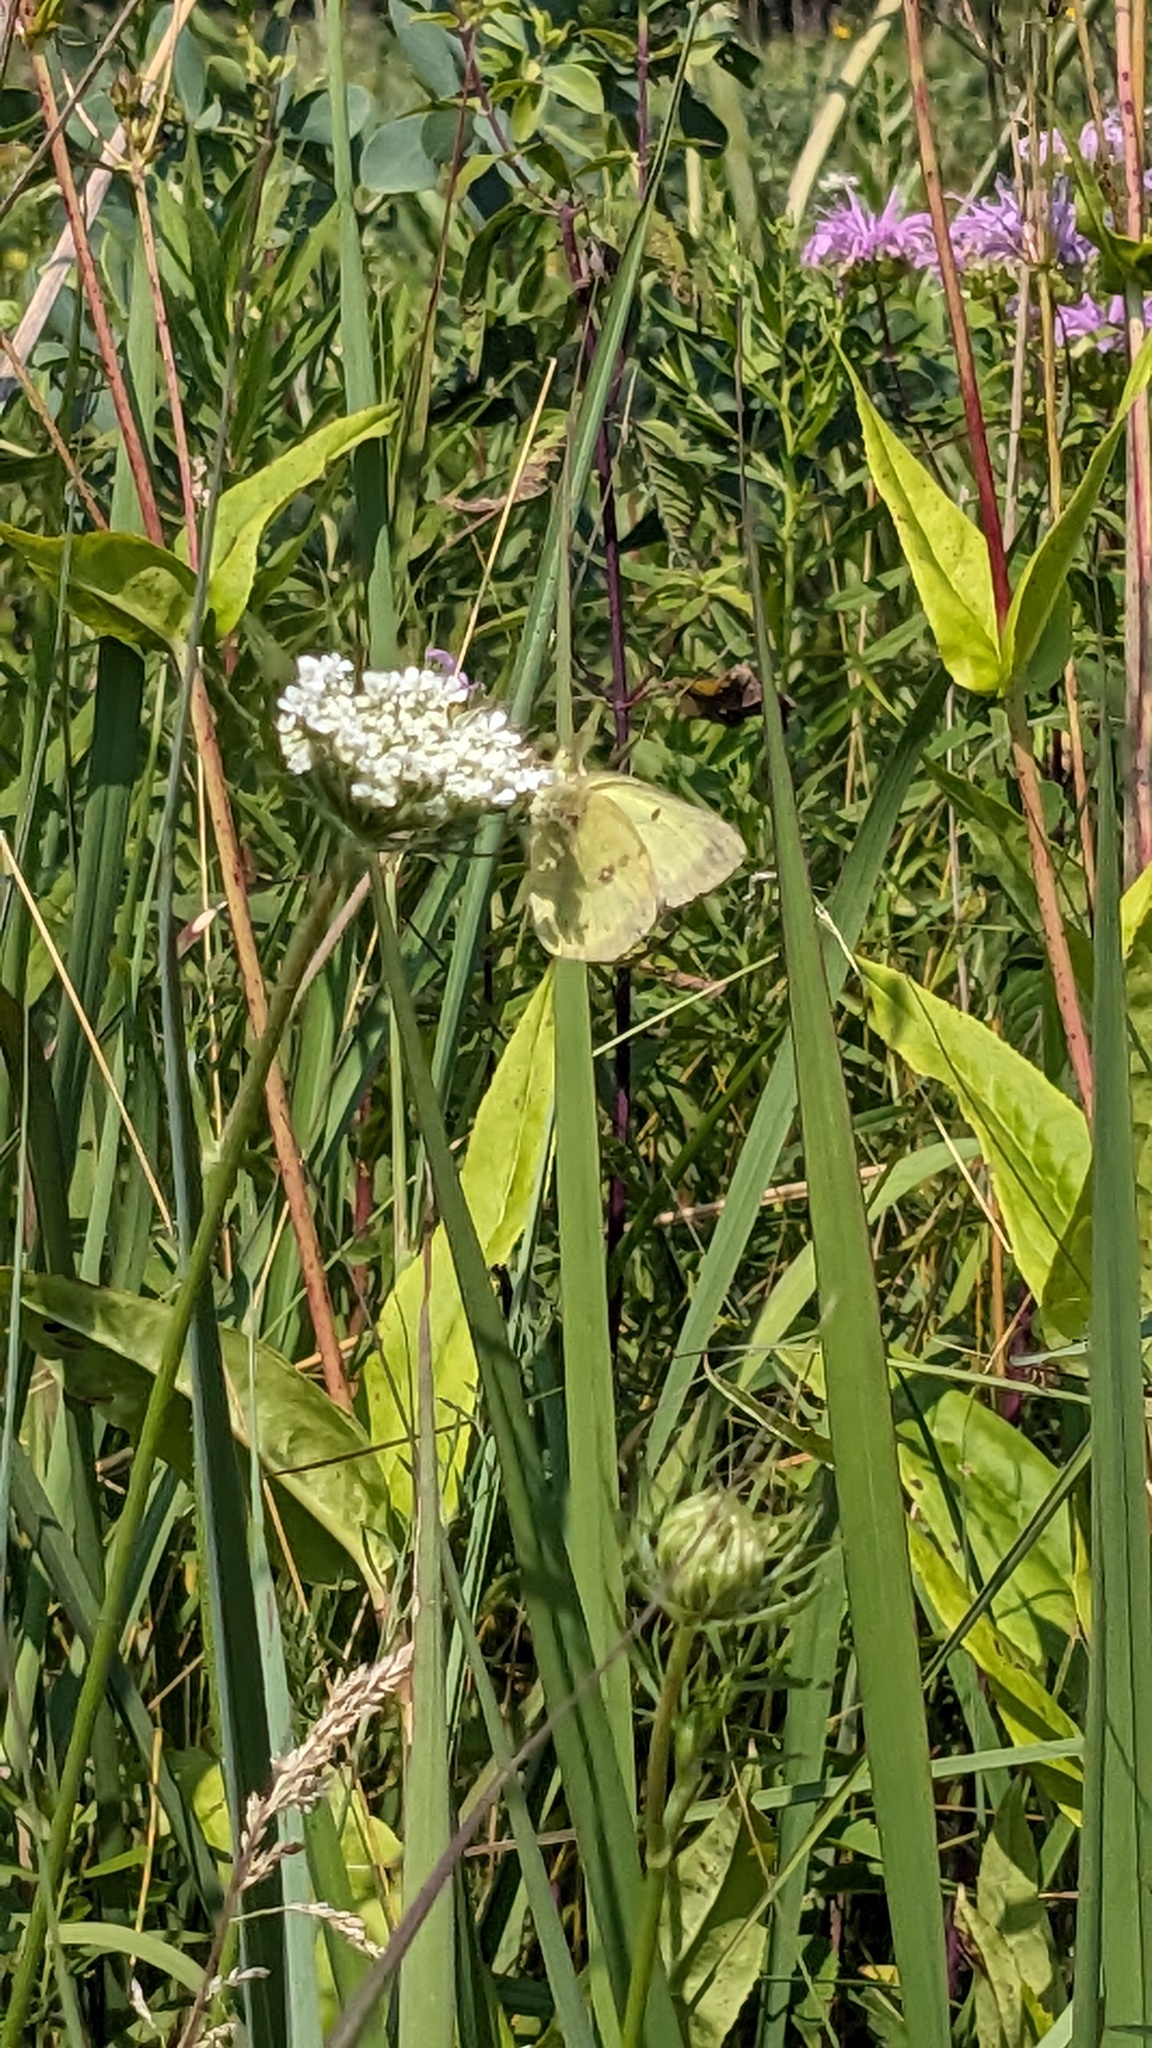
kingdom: Animalia
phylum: Arthropoda
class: Insecta
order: Lepidoptera
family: Pieridae
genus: Colias
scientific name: Colias philodice
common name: Clouded sulphur
